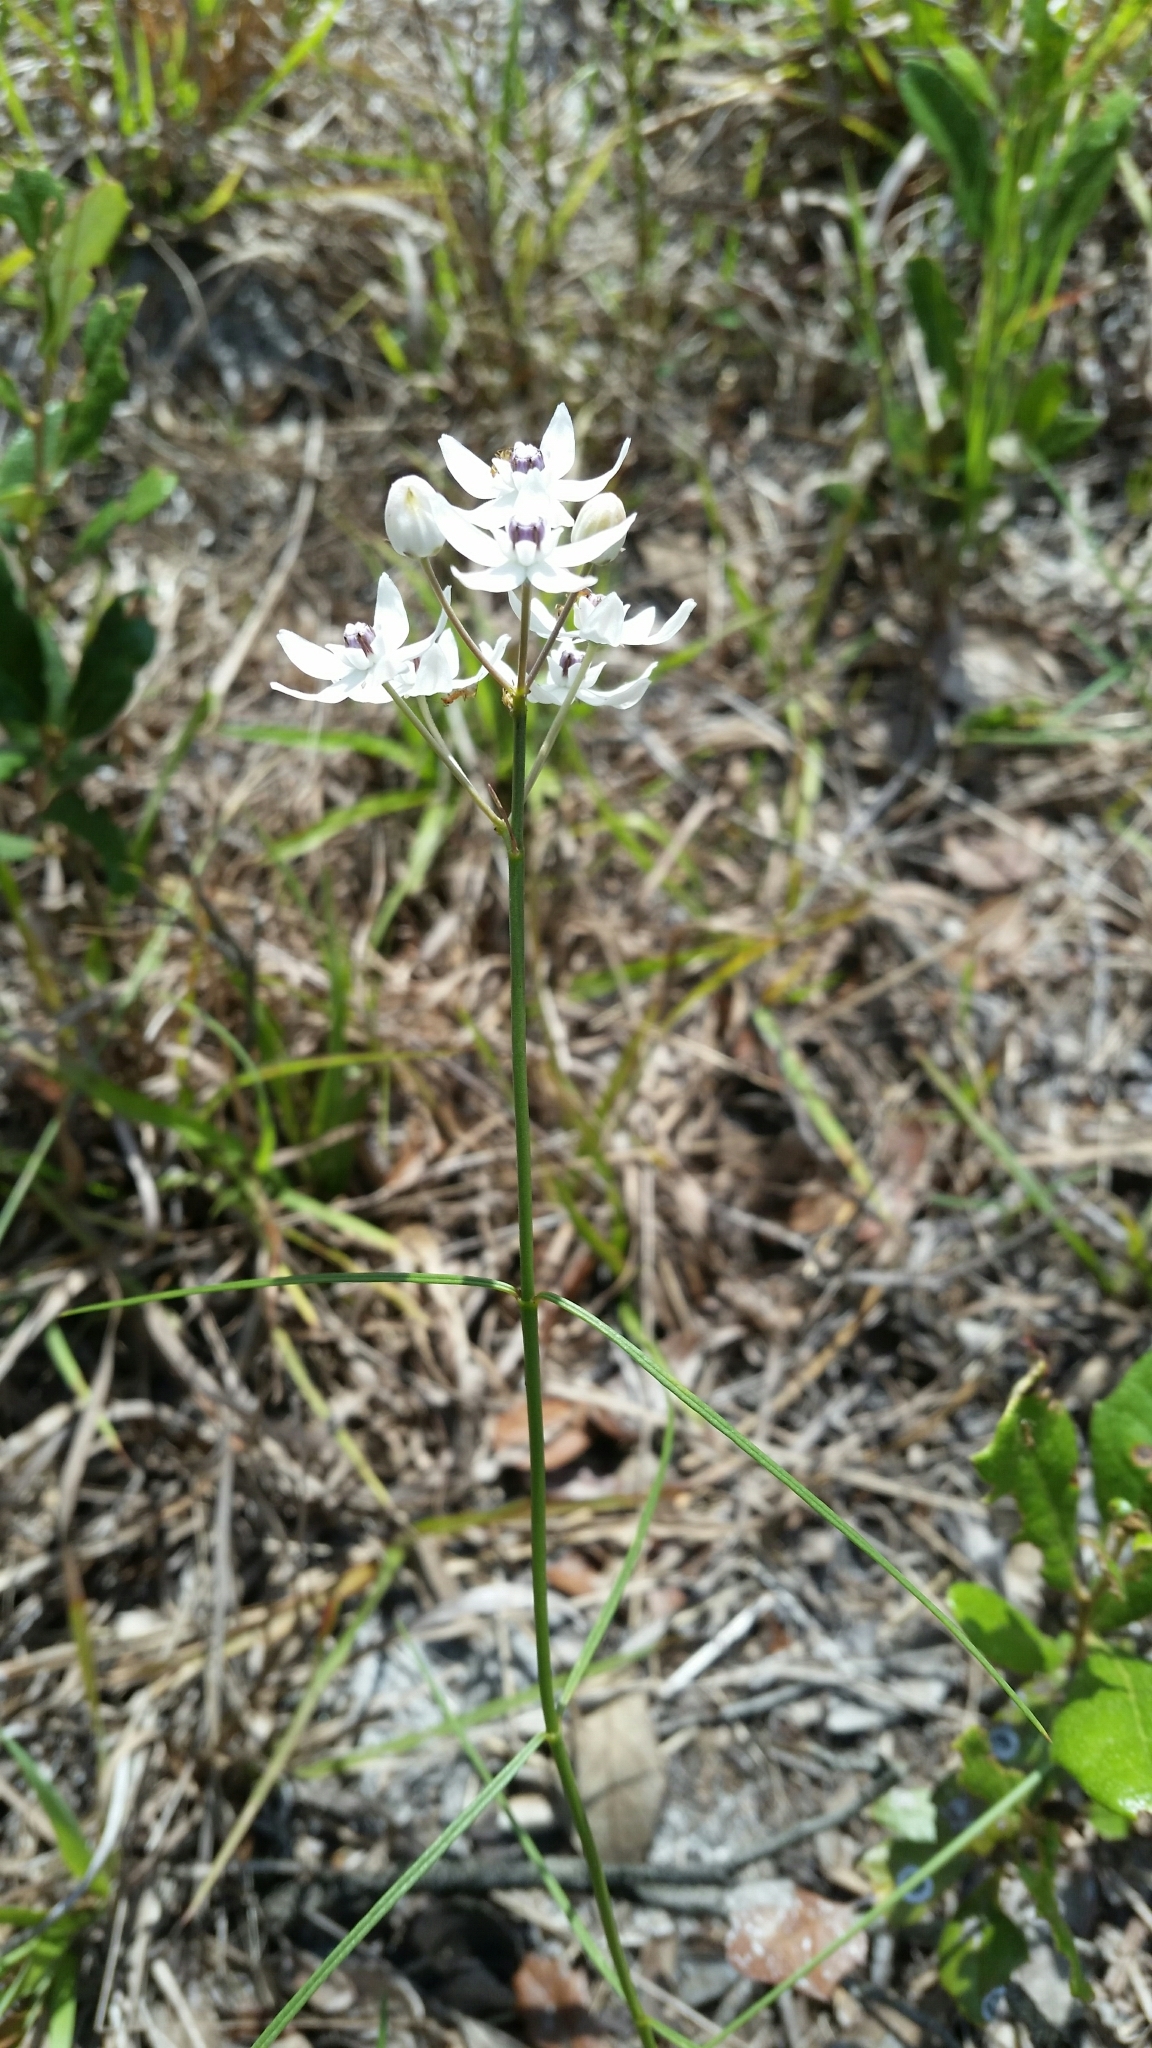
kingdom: Plantae
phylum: Tracheophyta
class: Magnoliopsida
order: Gentianales
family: Apocynaceae
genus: Asclepias
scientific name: Asclepias feayi
